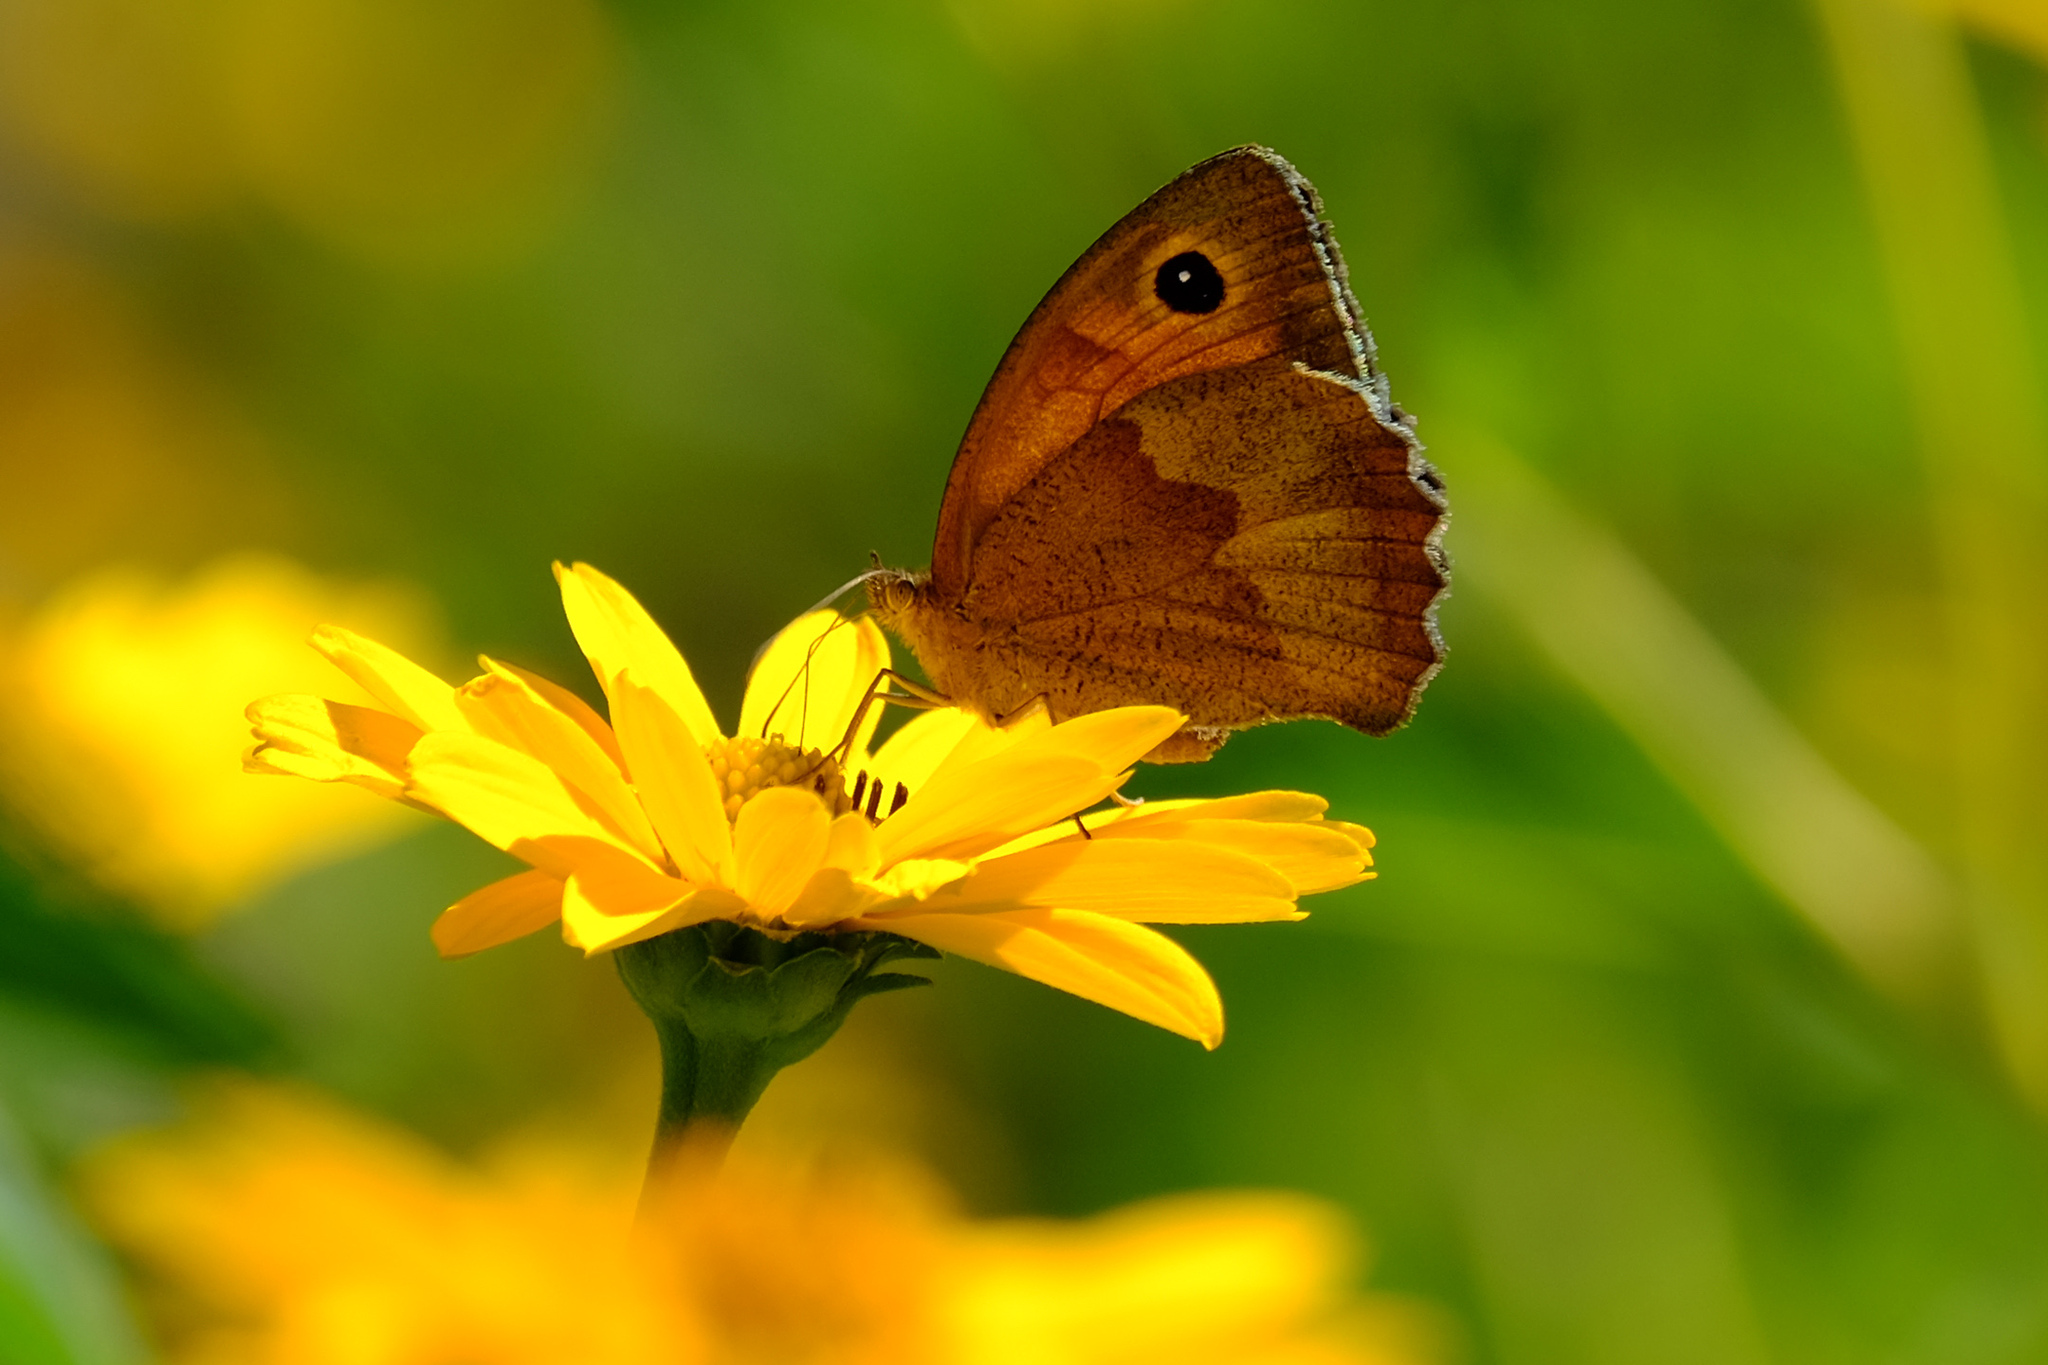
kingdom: Animalia
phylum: Arthropoda
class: Insecta
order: Lepidoptera
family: Nymphalidae
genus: Maniola
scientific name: Maniola jurtina
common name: Meadow brown
